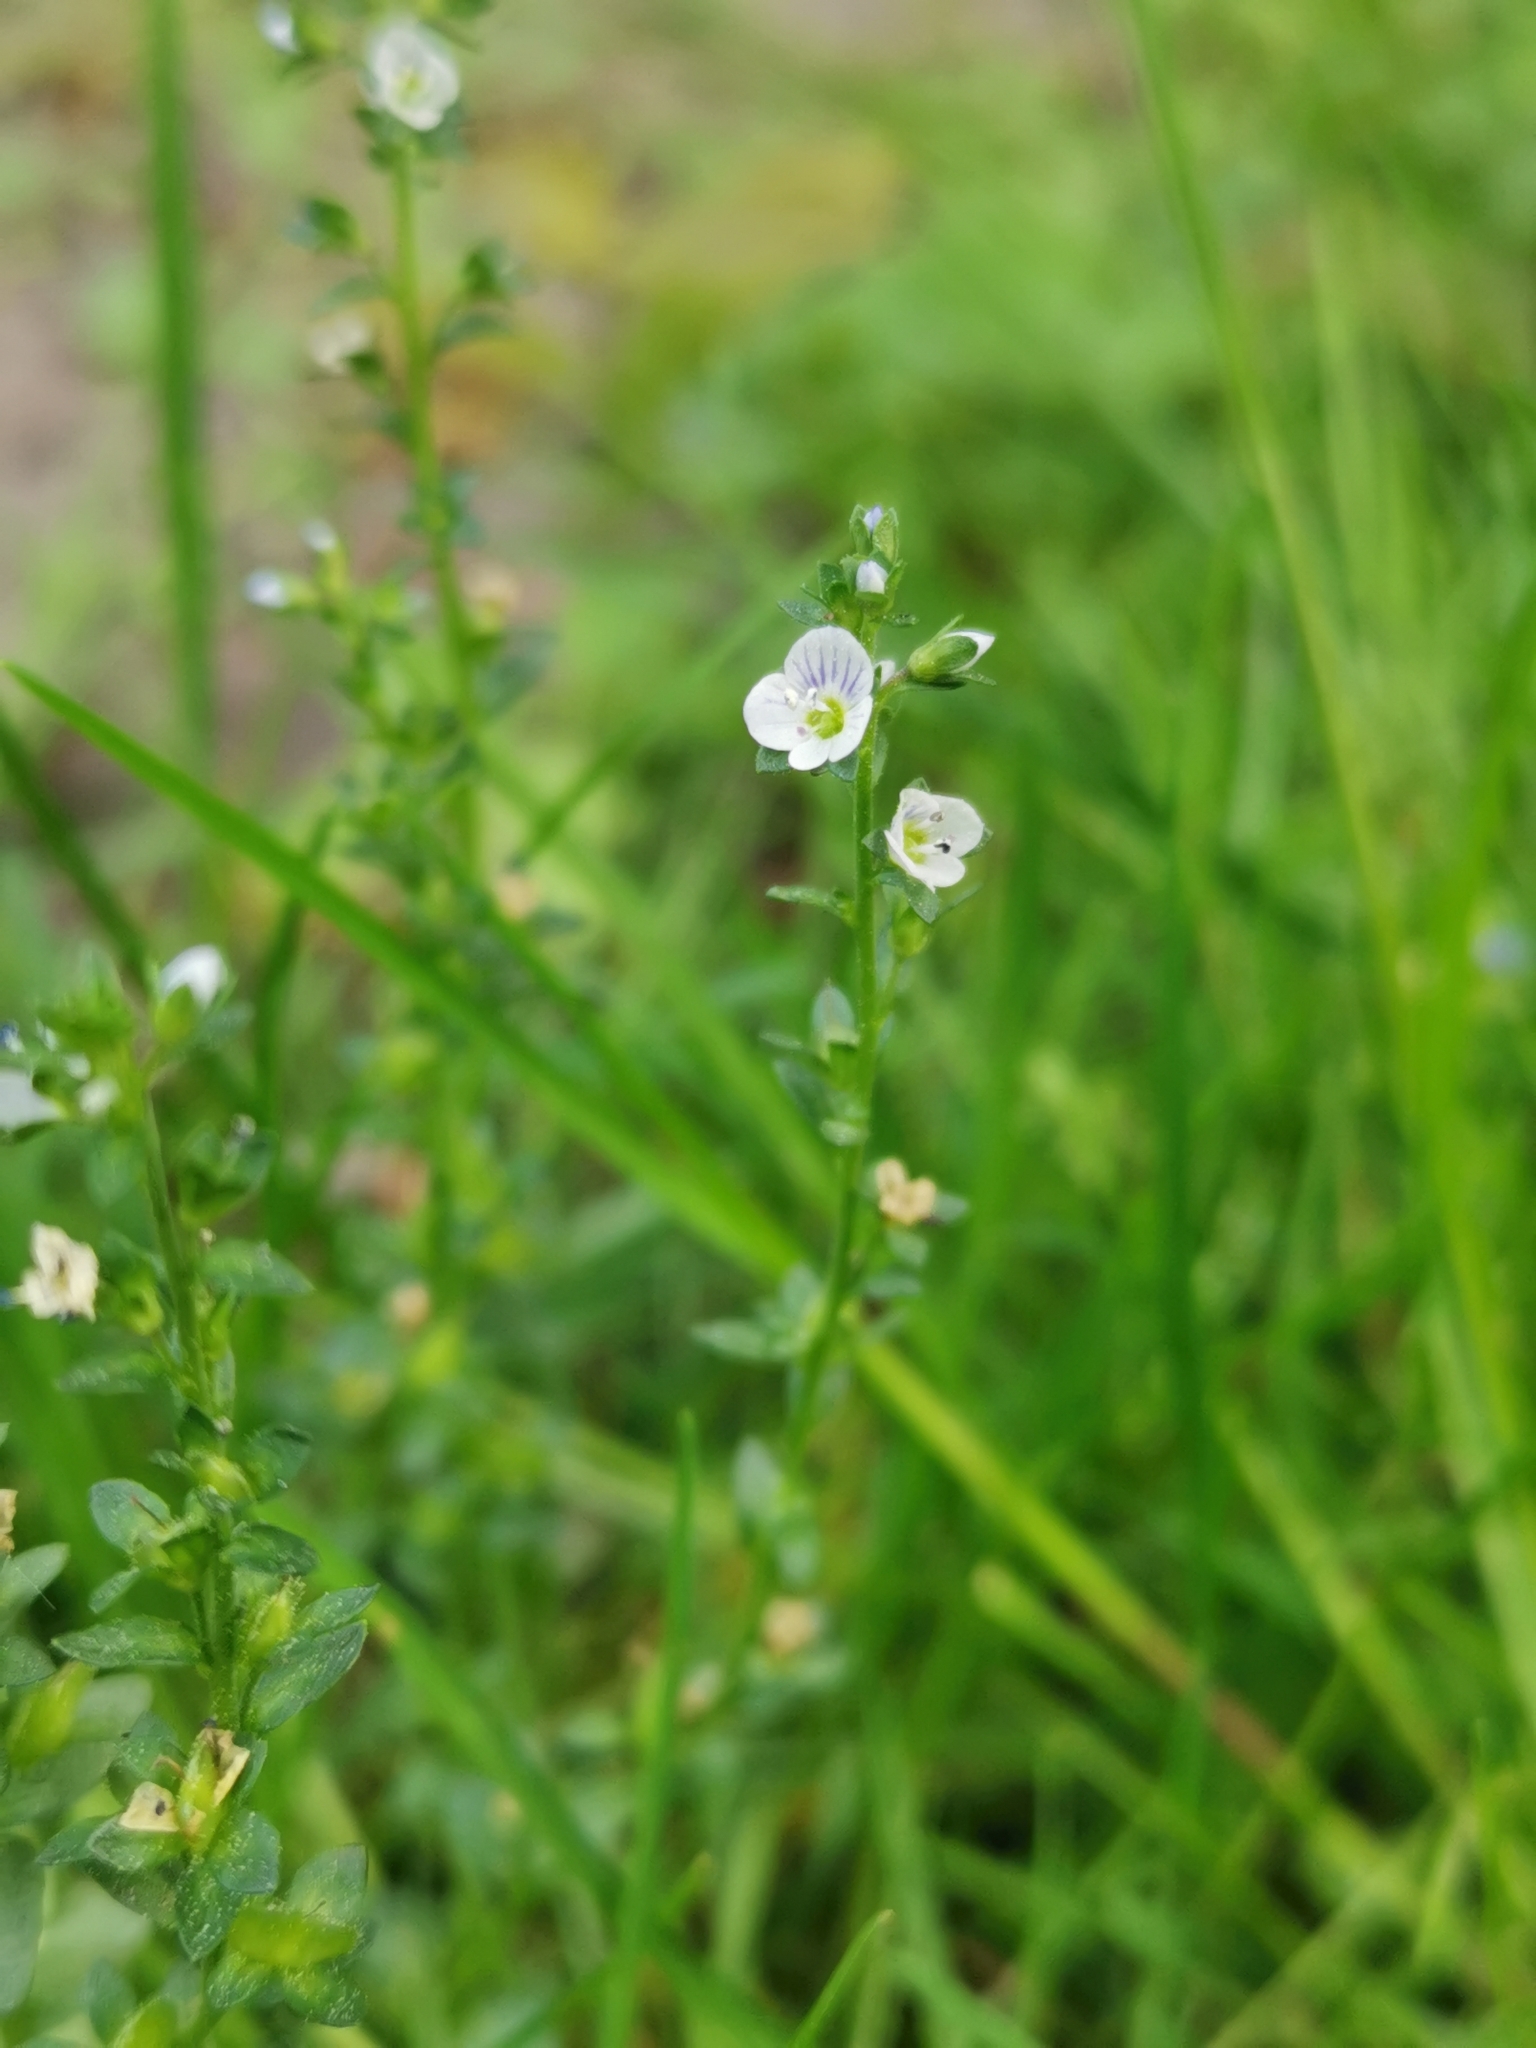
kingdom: Plantae
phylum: Tracheophyta
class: Magnoliopsida
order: Lamiales
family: Plantaginaceae
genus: Veronica
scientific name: Veronica serpyllifolia
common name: Thyme-leaved speedwell
